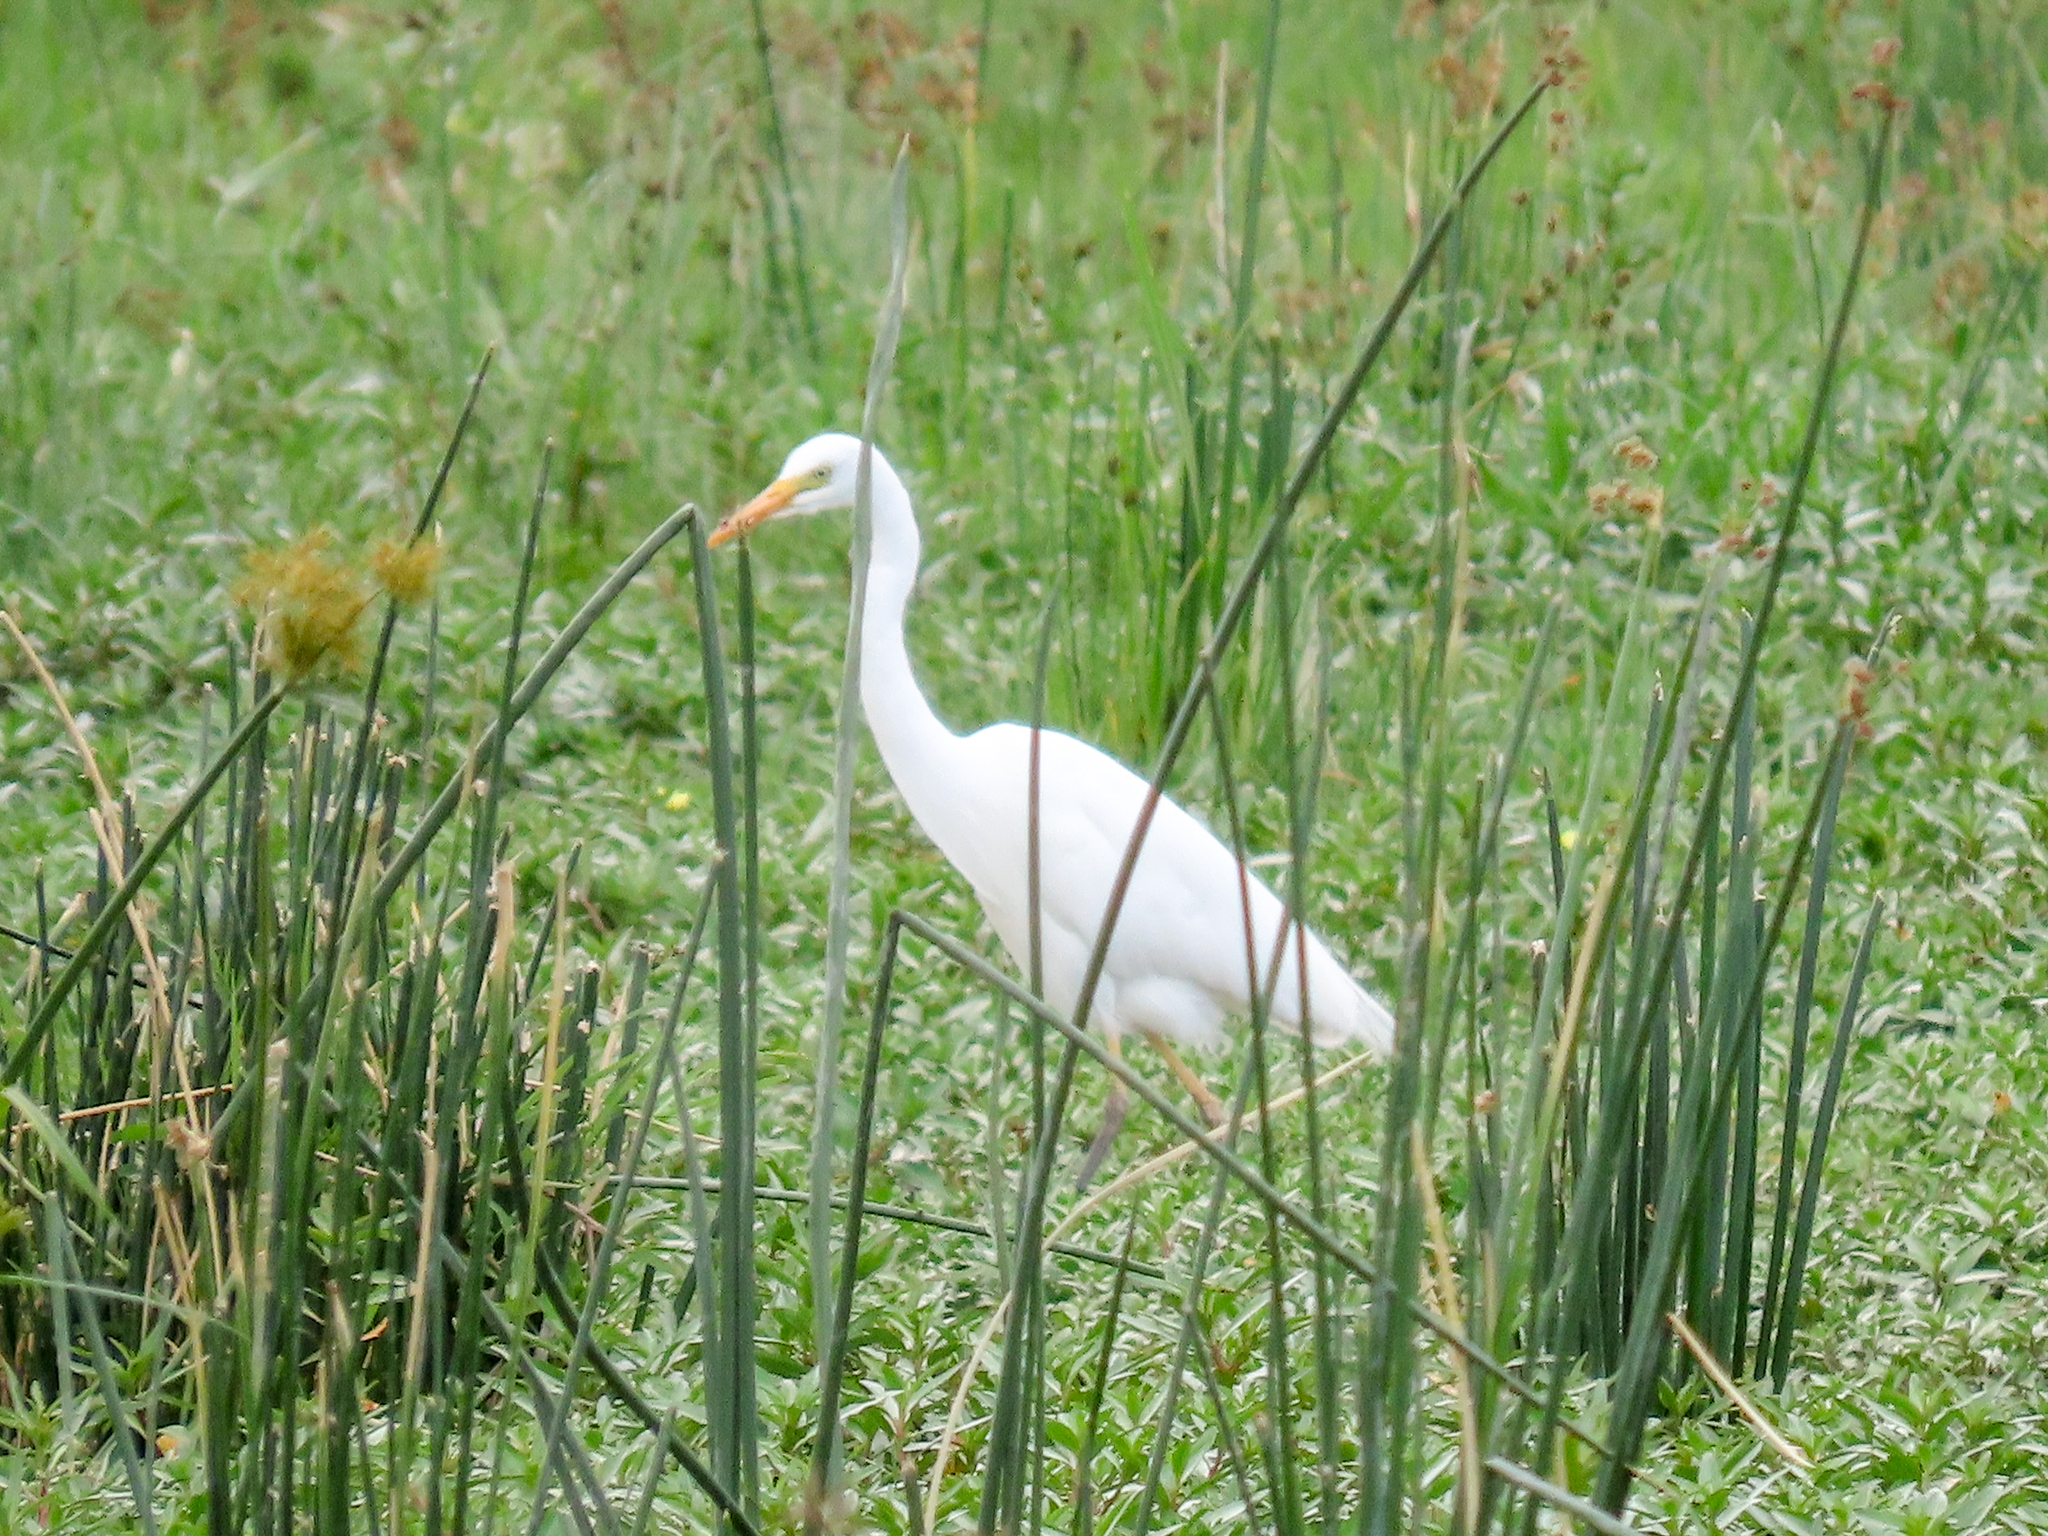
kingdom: Animalia
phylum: Chordata
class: Aves
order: Pelecaniformes
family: Ardeidae
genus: Egretta
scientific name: Egretta intermedia
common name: Intermediate egret
